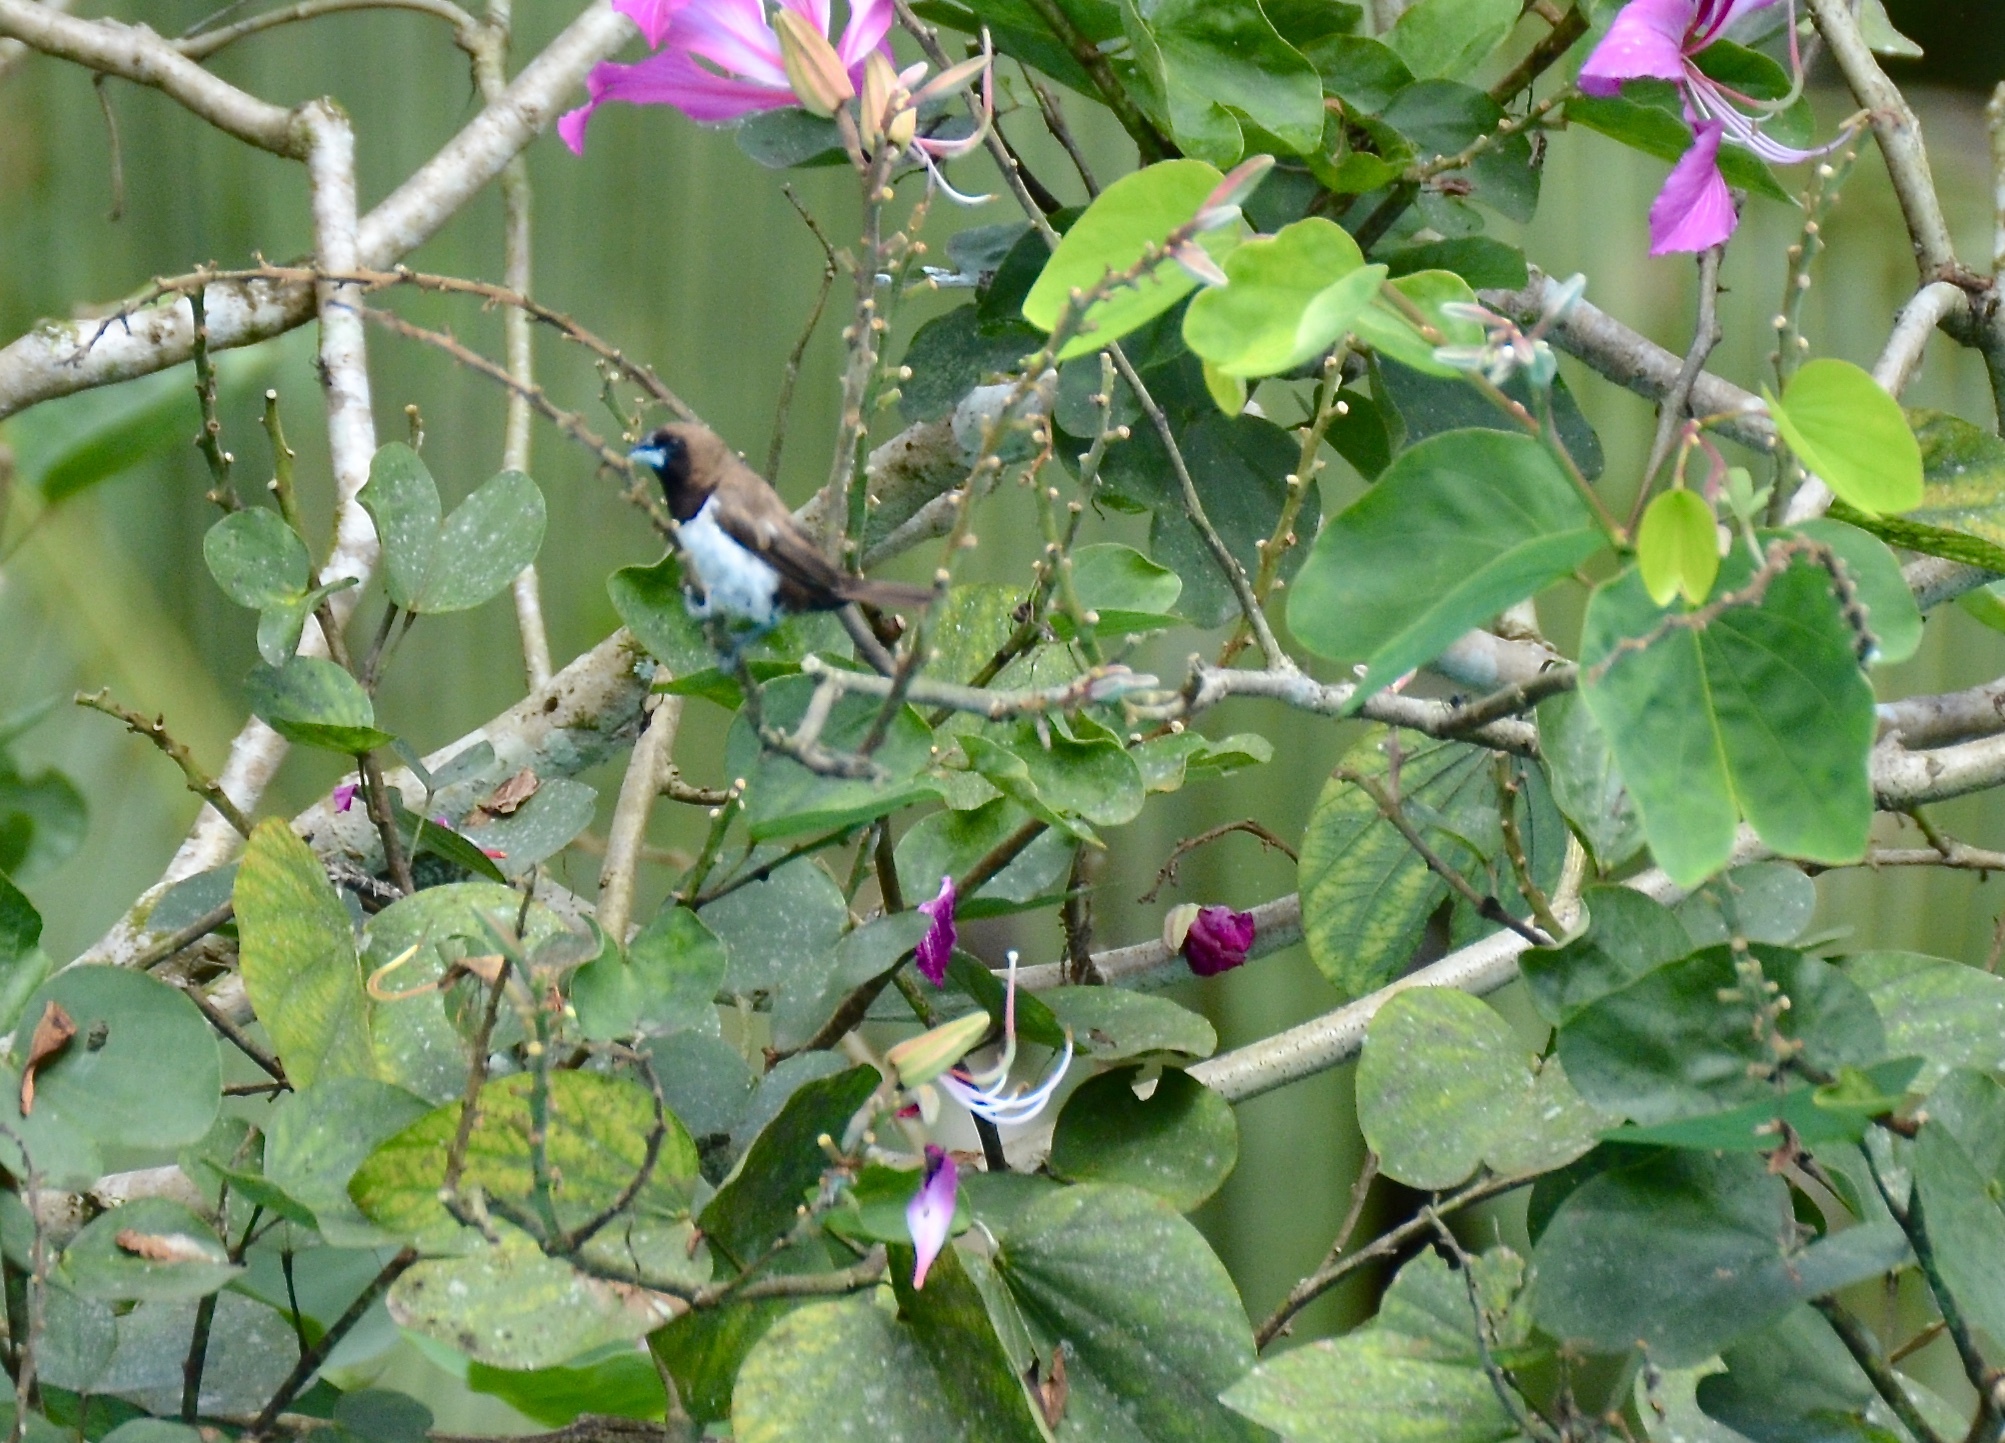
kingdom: Animalia
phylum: Chordata
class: Aves
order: Passeriformes
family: Estrildidae
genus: Lonchura
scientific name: Lonchura leucogastroides
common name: Javan munia
